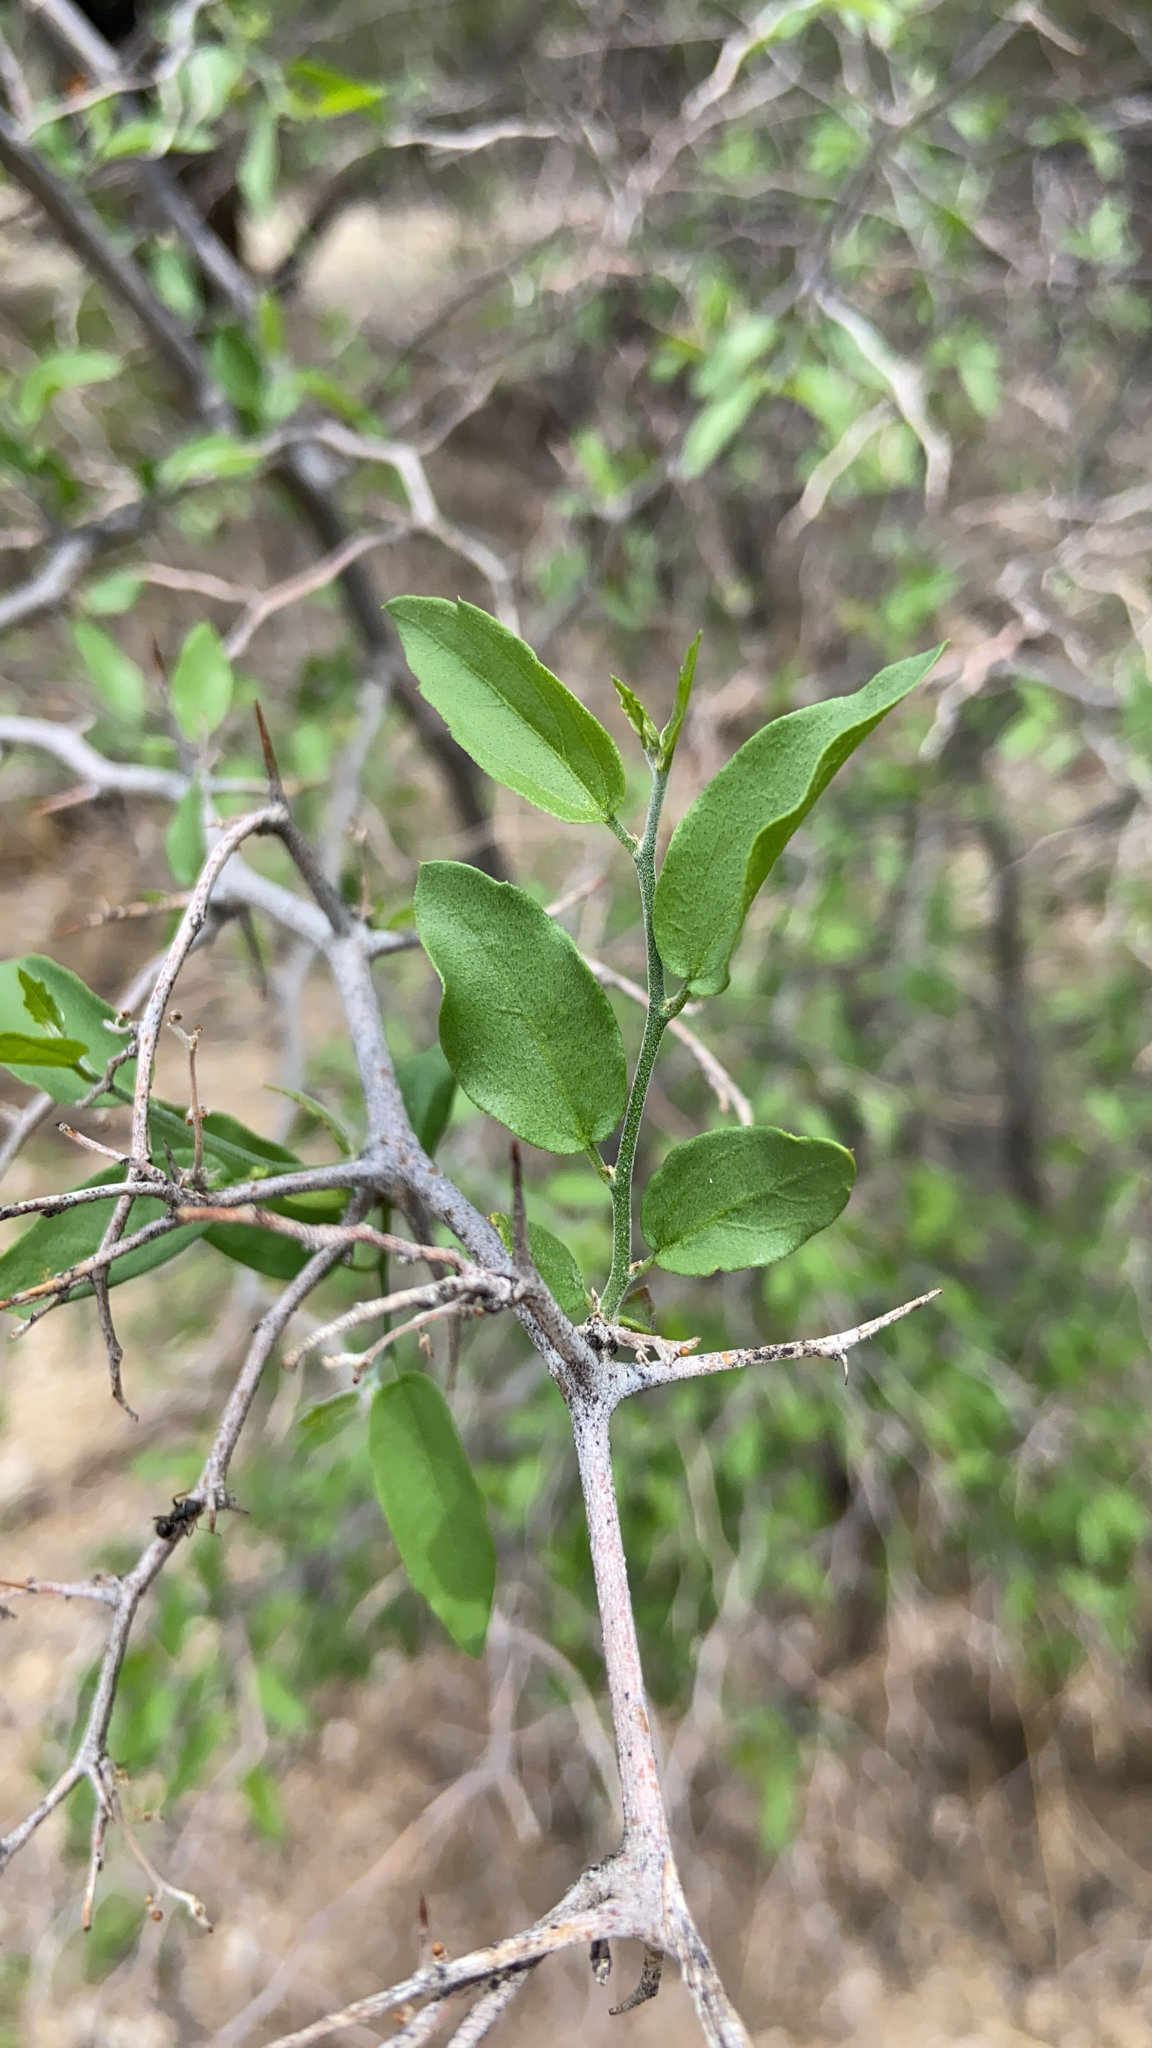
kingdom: Plantae
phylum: Tracheophyta
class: Magnoliopsida
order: Rosales
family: Cannabaceae
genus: Celtis
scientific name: Celtis pallida
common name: Desert hackberry
